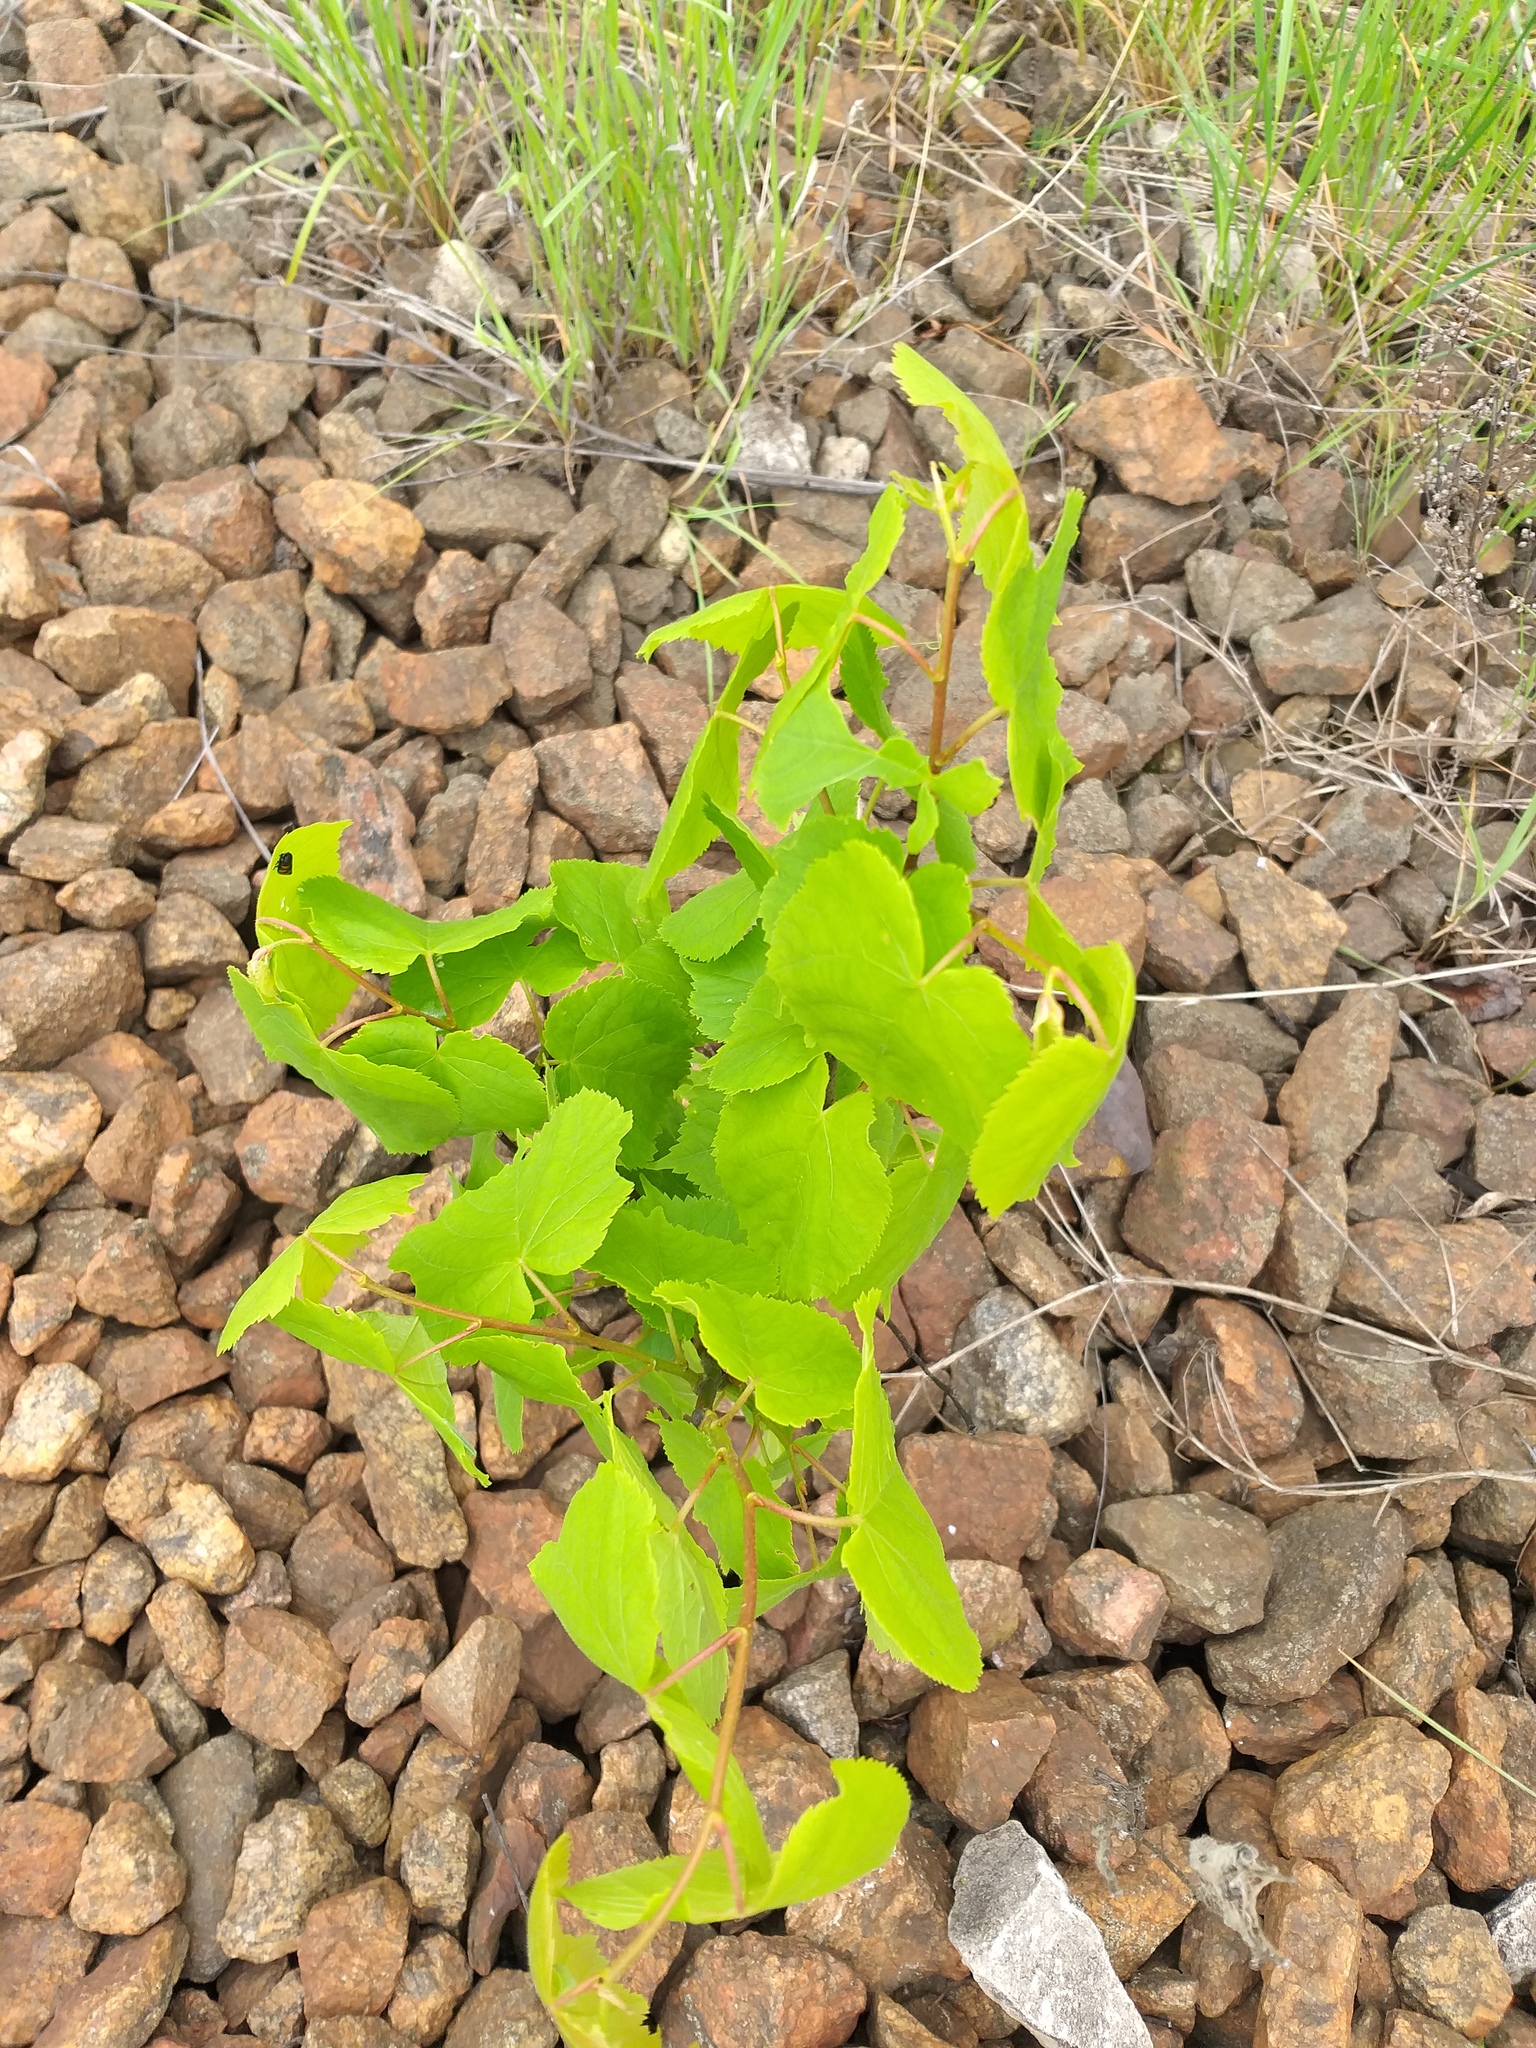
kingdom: Plantae
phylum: Tracheophyta
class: Magnoliopsida
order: Malvales
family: Malvaceae
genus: Tilia
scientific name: Tilia cordata
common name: Small-leaved lime
